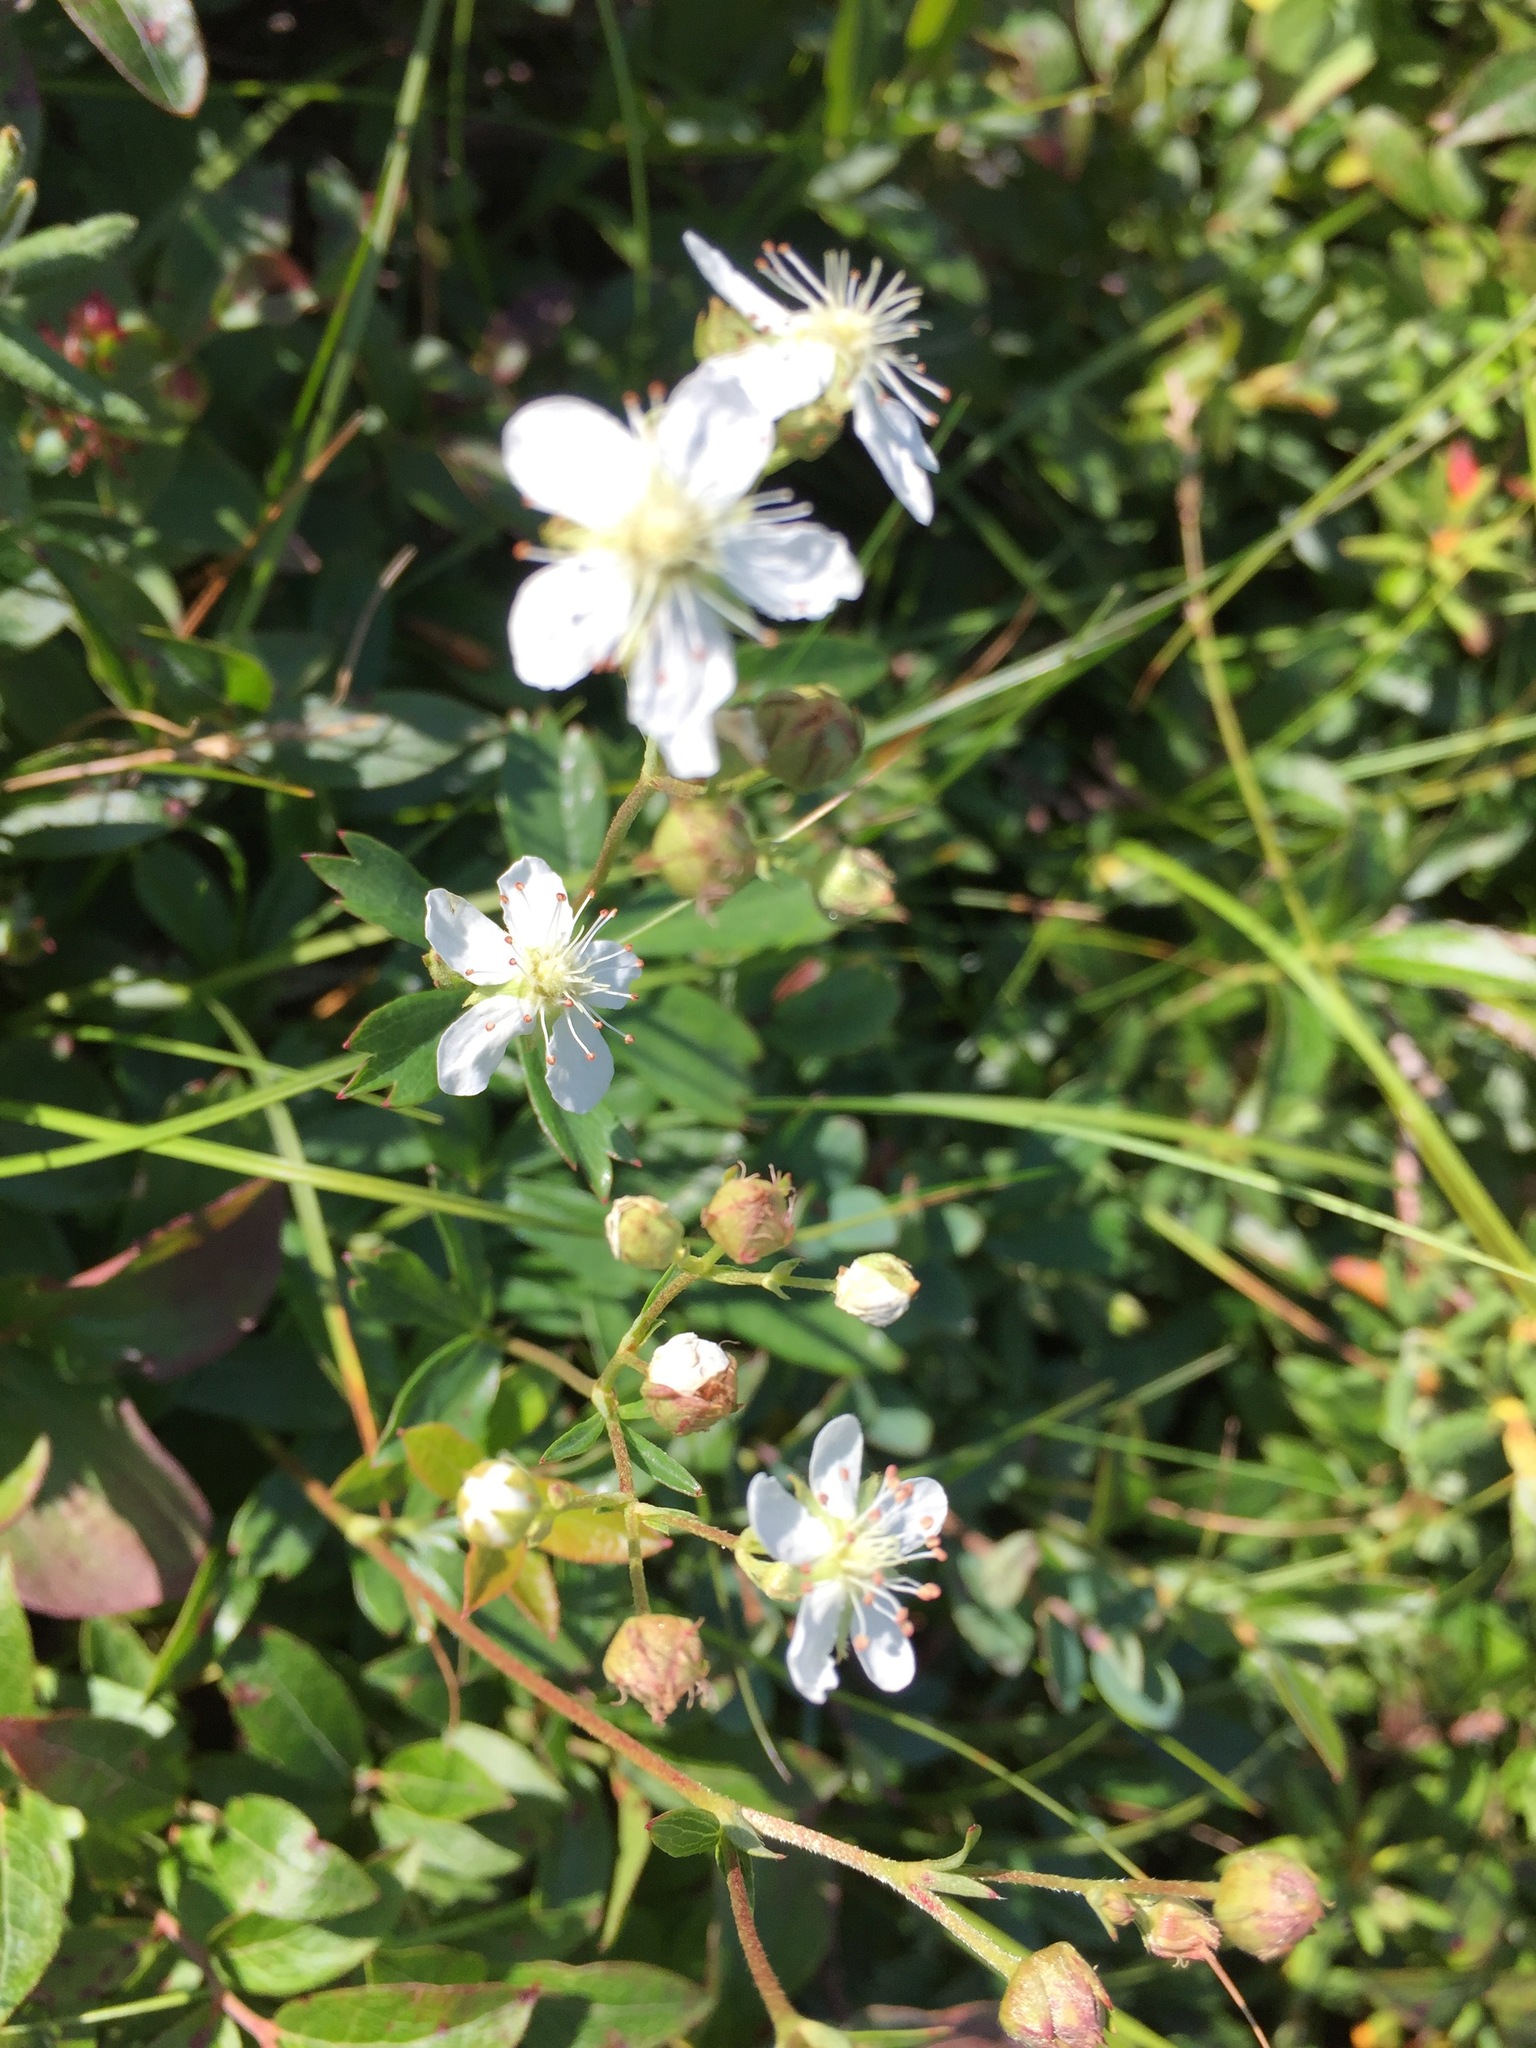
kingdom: Plantae
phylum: Tracheophyta
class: Magnoliopsida
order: Rosales
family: Rosaceae
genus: Sibbaldia
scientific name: Sibbaldia tridentata
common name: Three-toothed cinquefoil
